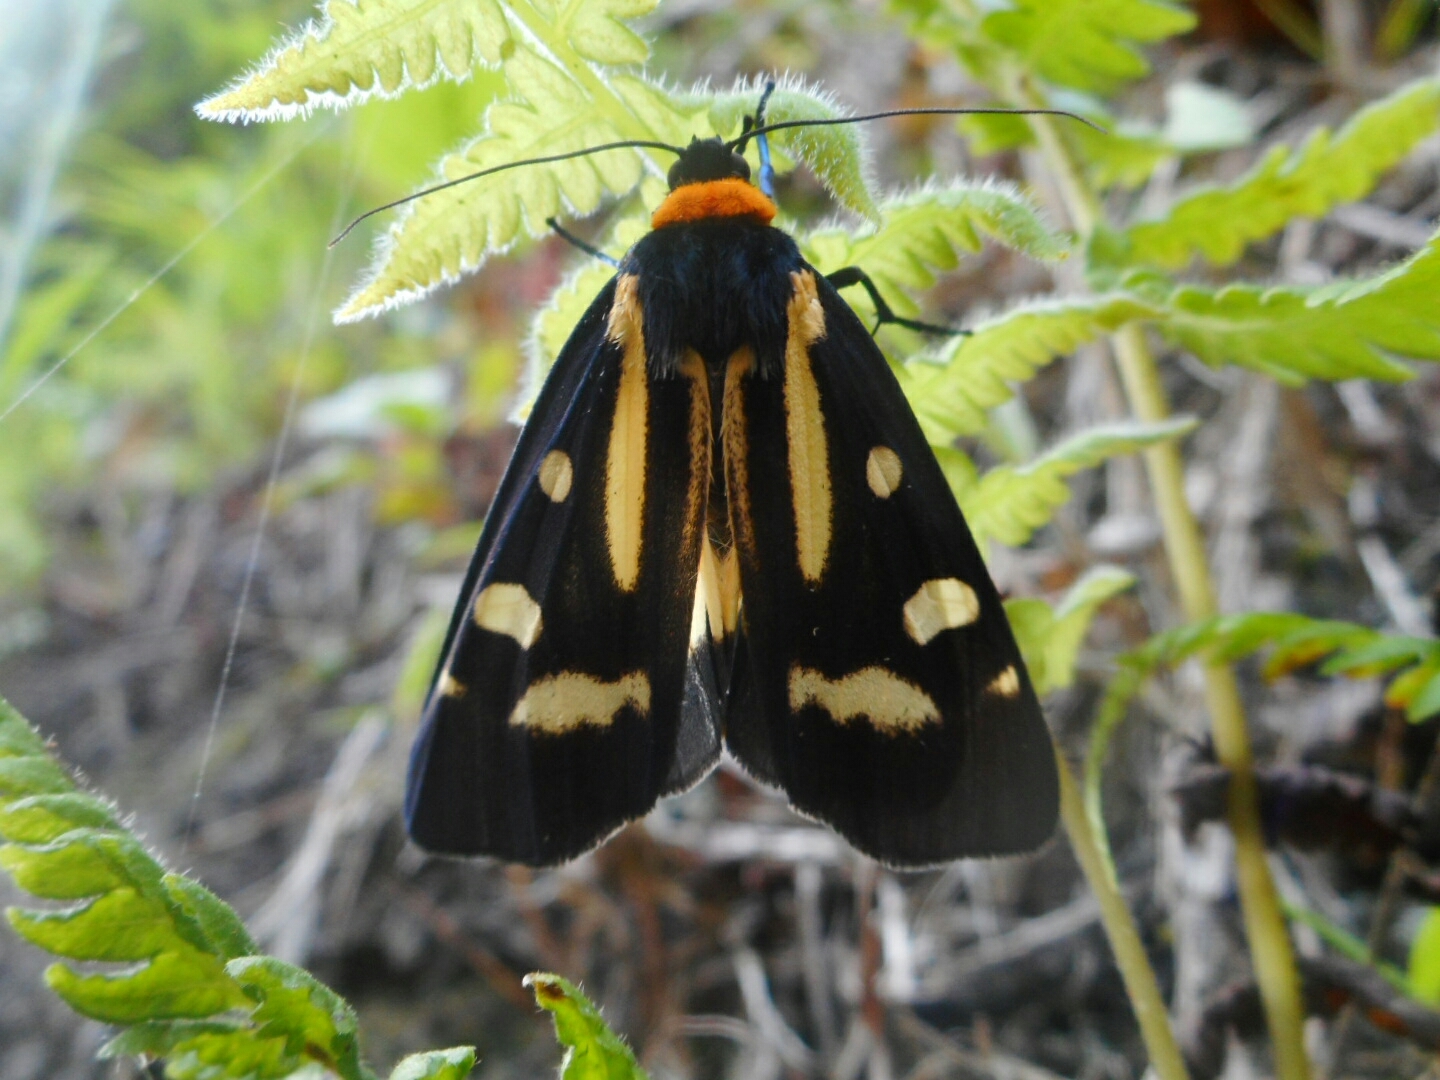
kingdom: Animalia
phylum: Arthropoda
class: Insecta
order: Lepidoptera
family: Erebidae
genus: Macrobrochis
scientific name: Macrobrochis notabilis
